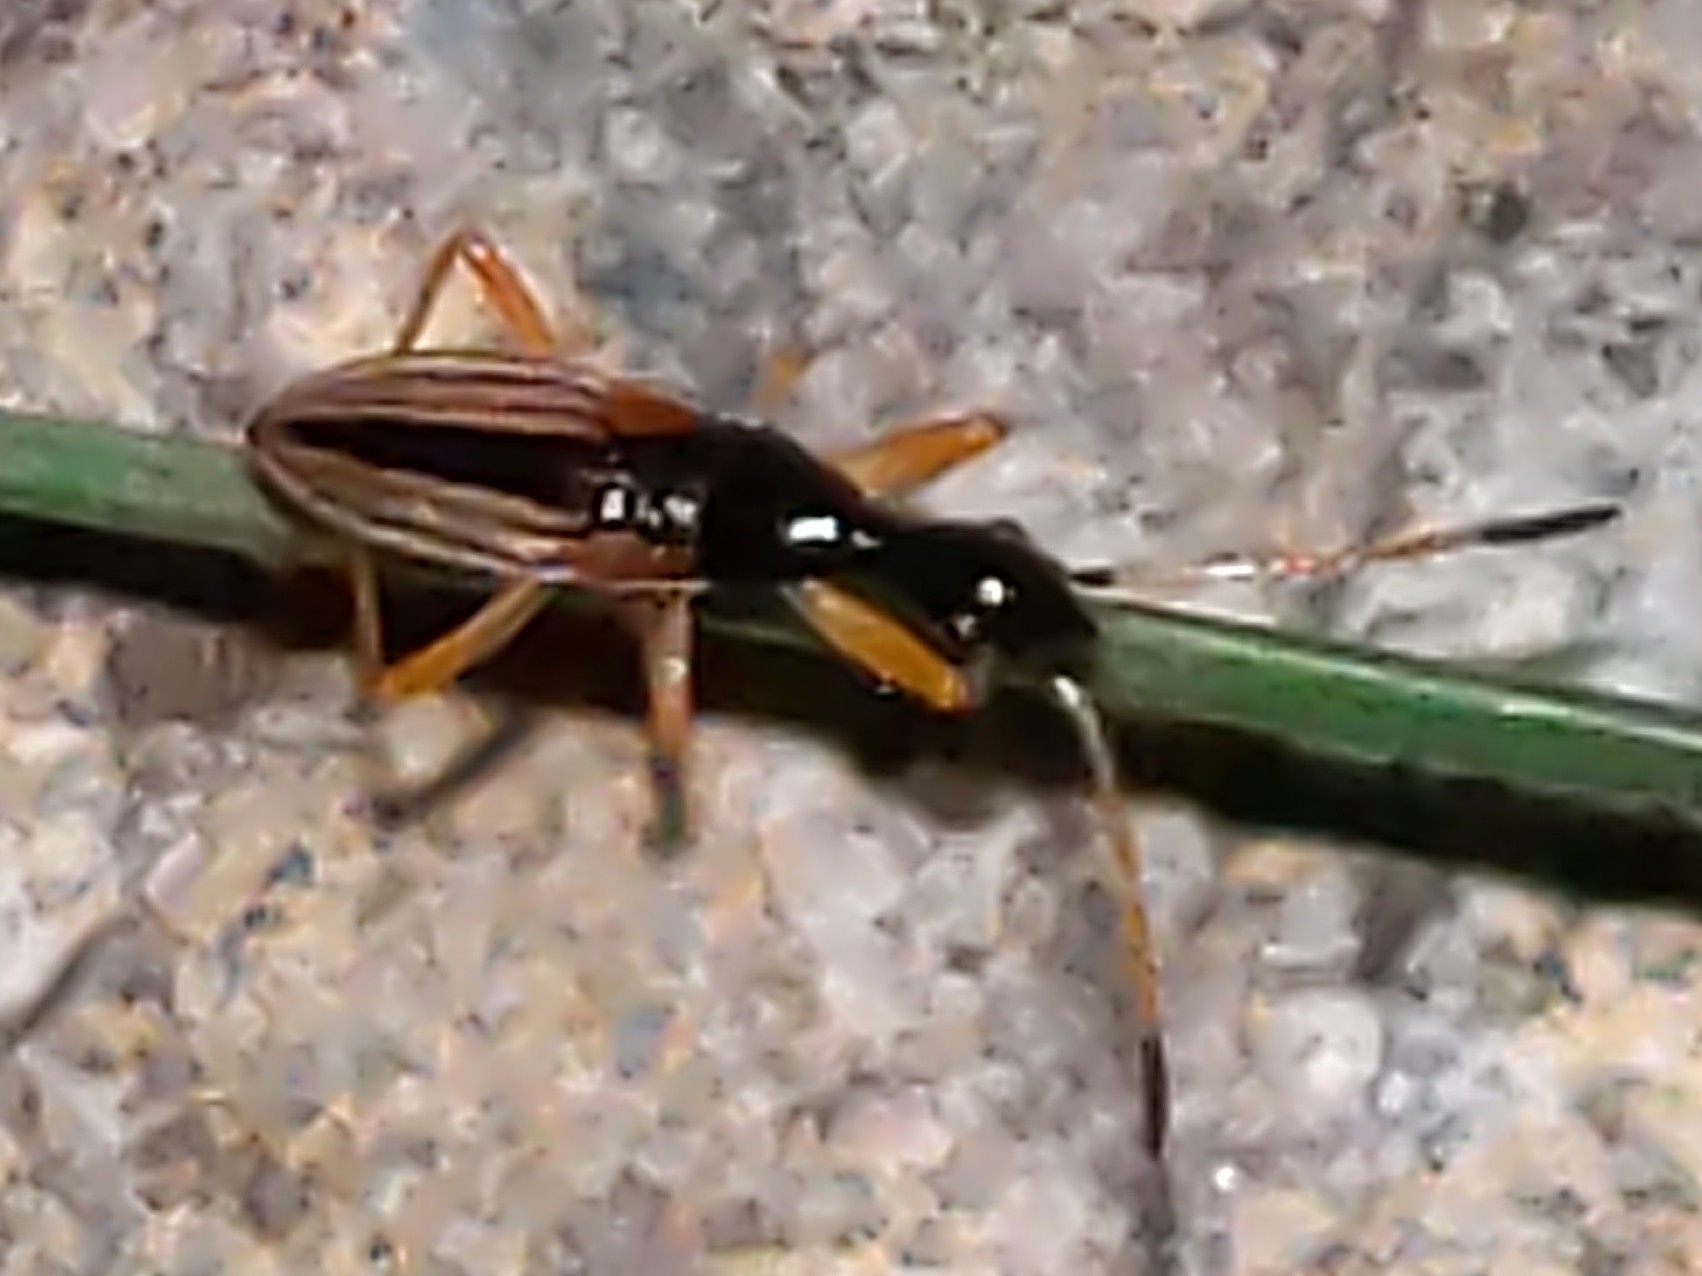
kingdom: Animalia
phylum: Arthropoda
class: Insecta
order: Hemiptera
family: Rhyparochromidae
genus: Myodocha
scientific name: Myodocha serripes
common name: Long-necked seed bug
